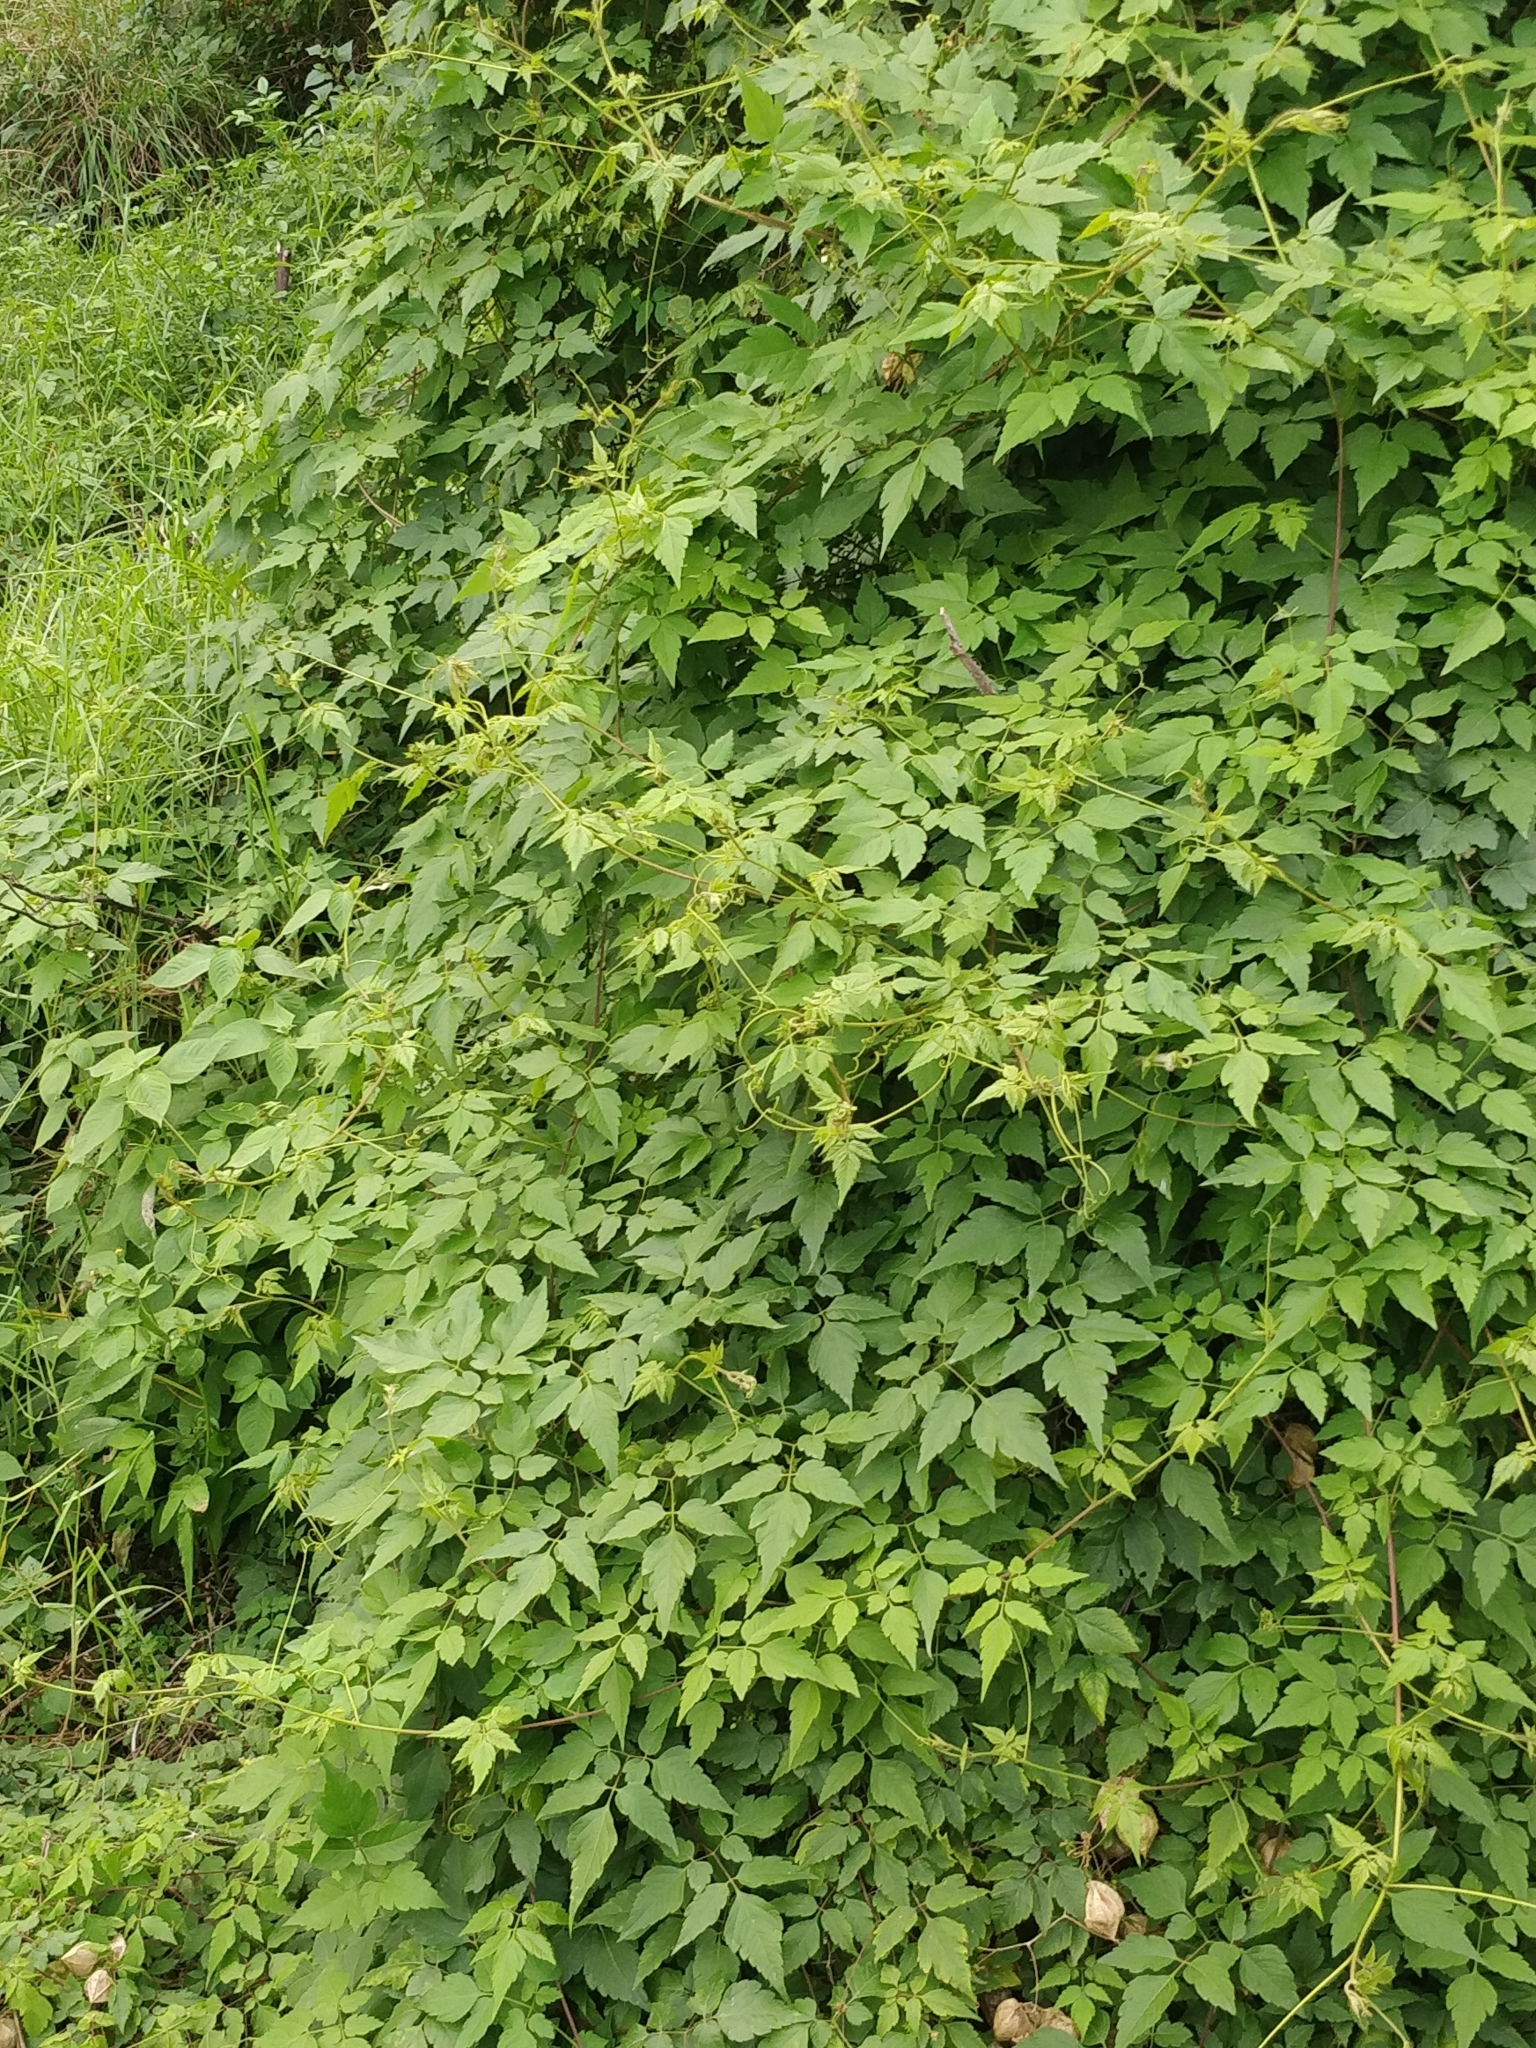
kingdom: Plantae
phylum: Tracheophyta
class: Magnoliopsida
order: Sapindales
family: Sapindaceae
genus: Cardiospermum
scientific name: Cardiospermum grandiflorum
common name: Balloon vine
